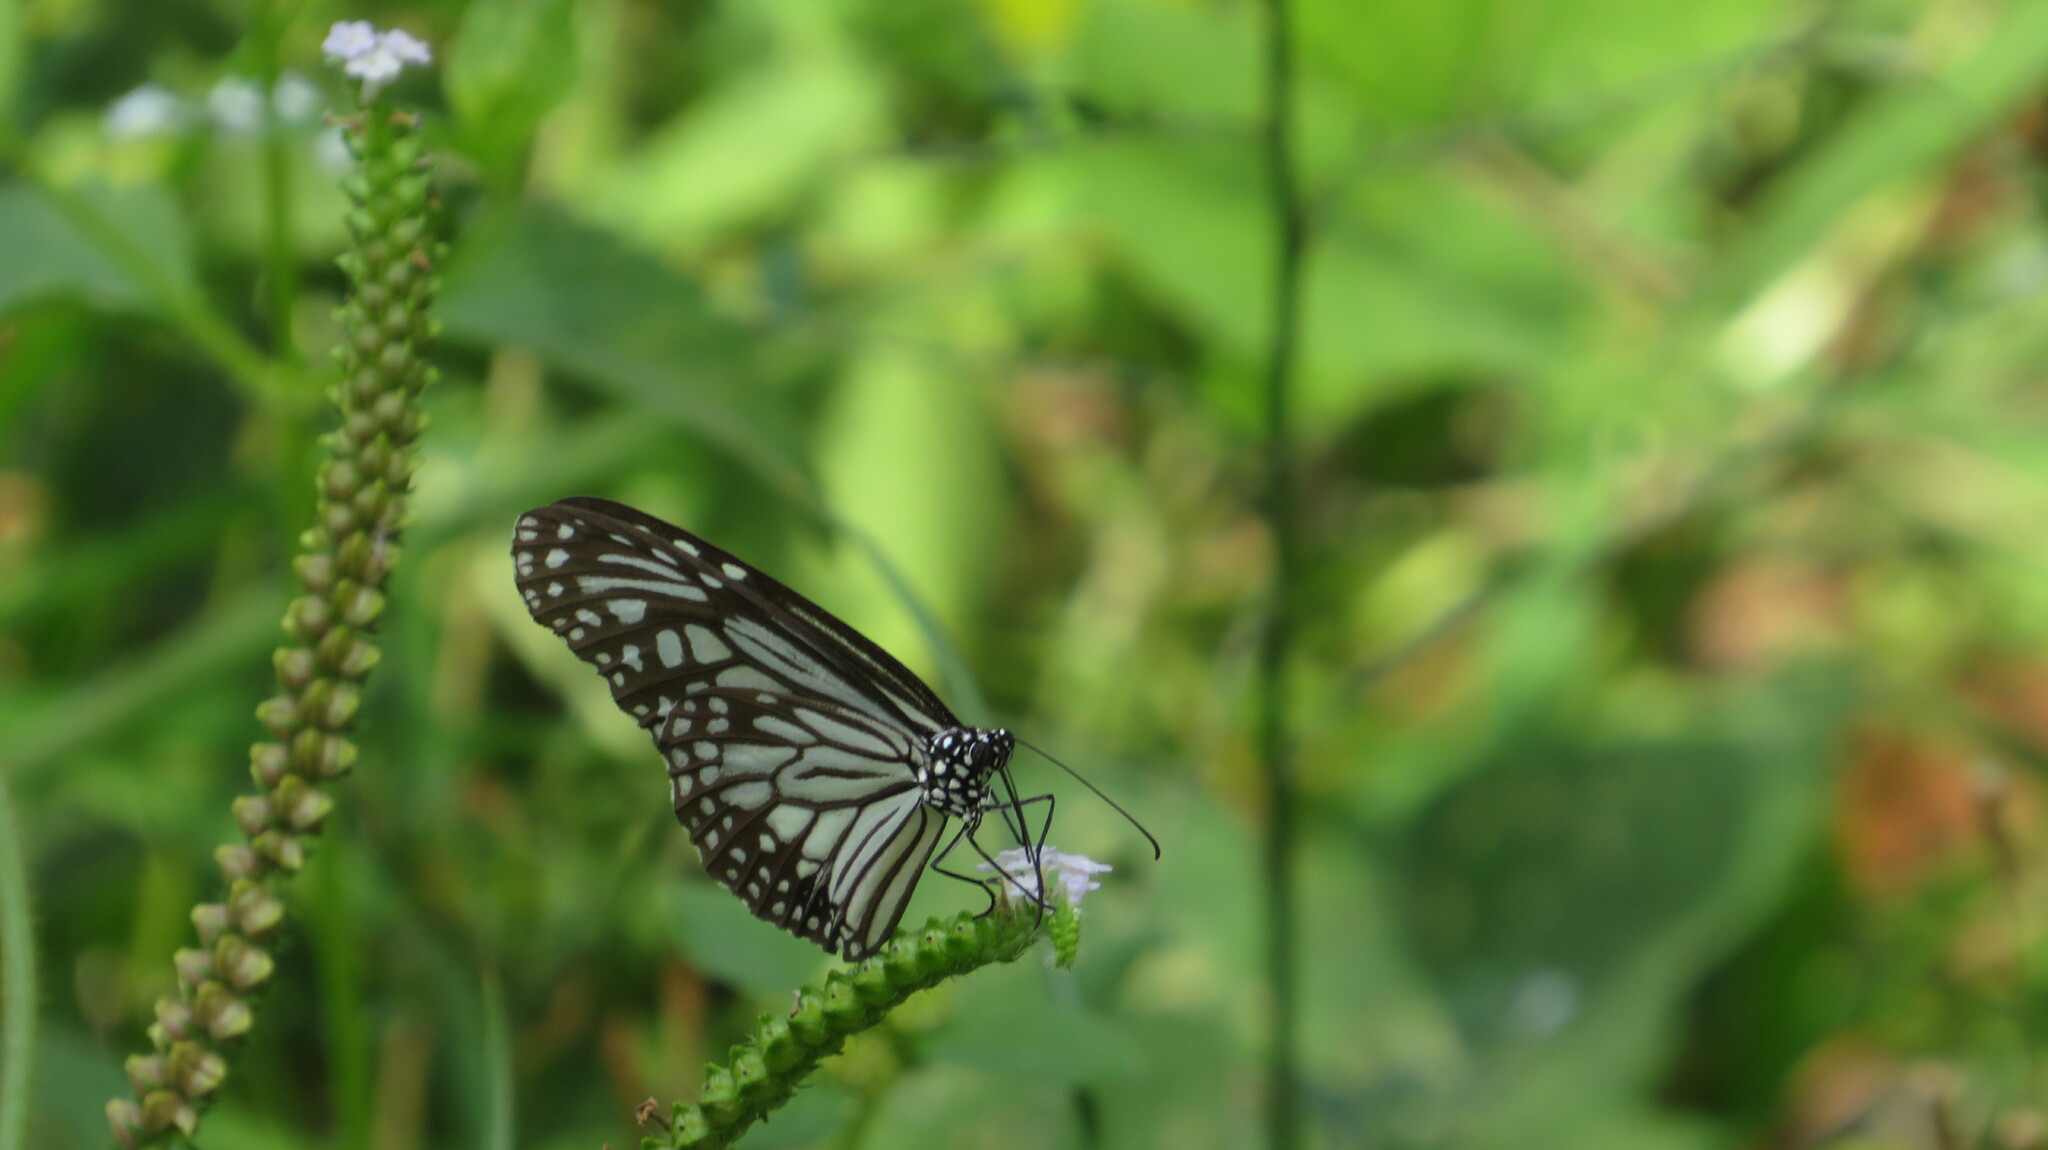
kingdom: Animalia
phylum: Arthropoda
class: Insecta
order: Lepidoptera
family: Nymphalidae
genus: Parantica
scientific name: Parantica aglea
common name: Glassy tiger
